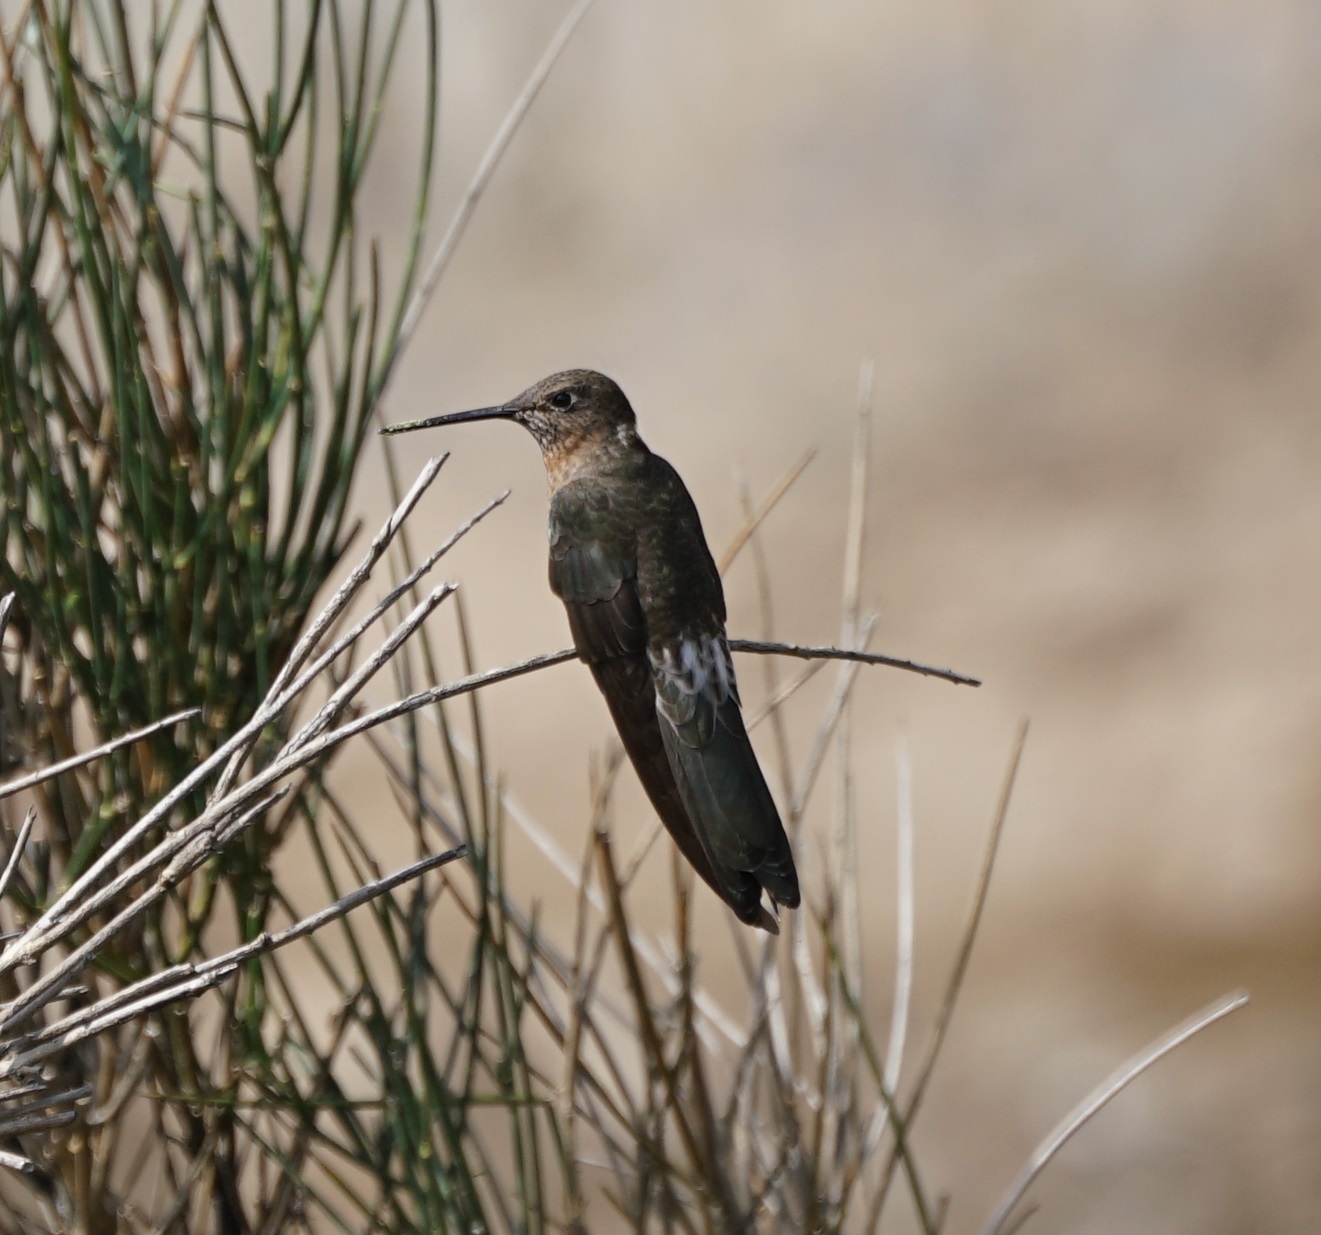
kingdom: Animalia
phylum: Chordata
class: Aves
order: Apodiformes
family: Trochilidae
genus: Patagona
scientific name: Patagona gigas
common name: Giant hummingbird
